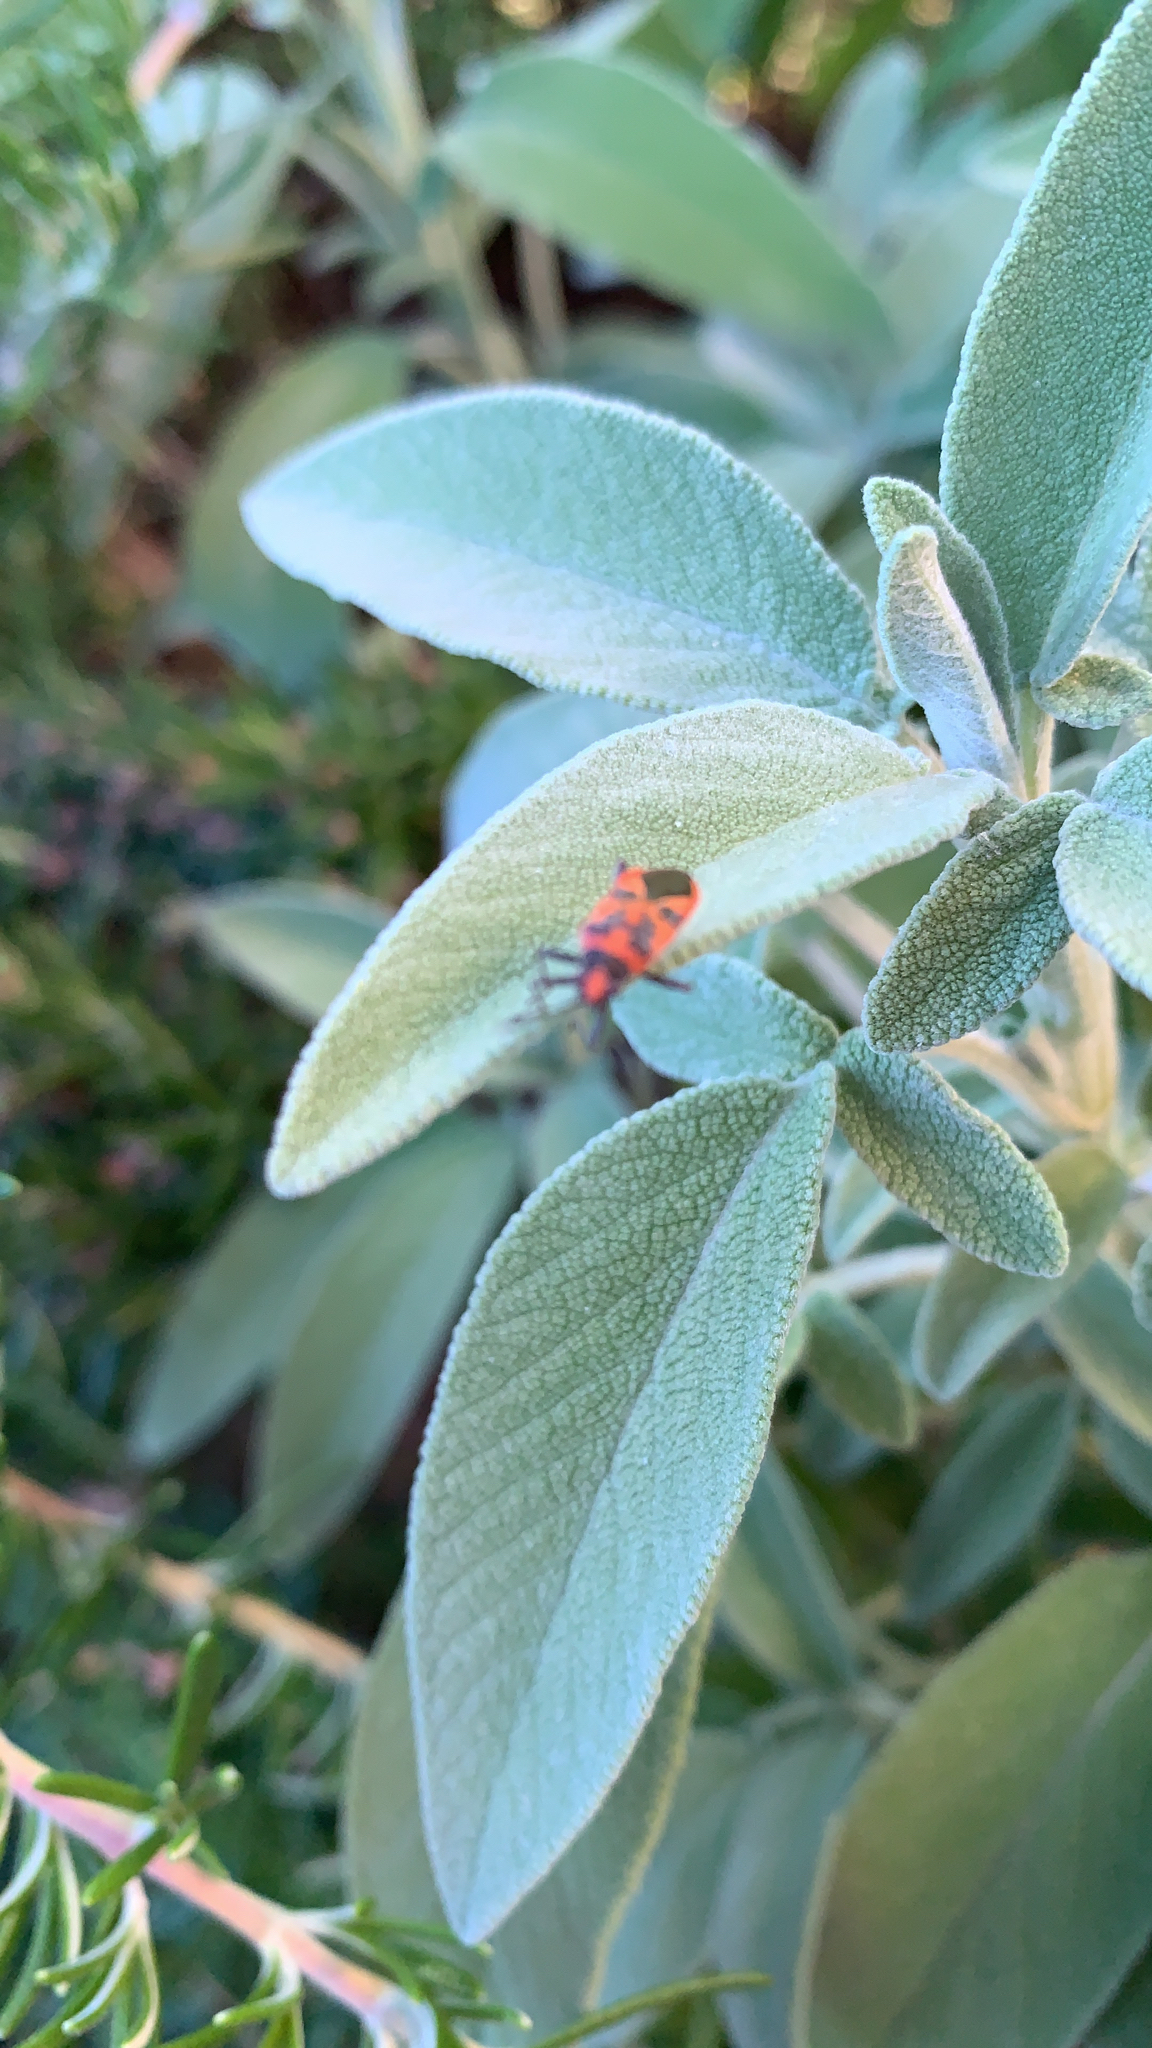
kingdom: Animalia
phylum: Arthropoda
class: Insecta
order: Hemiptera
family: Rhopalidae
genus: Corizus
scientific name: Corizus hyoscyami
